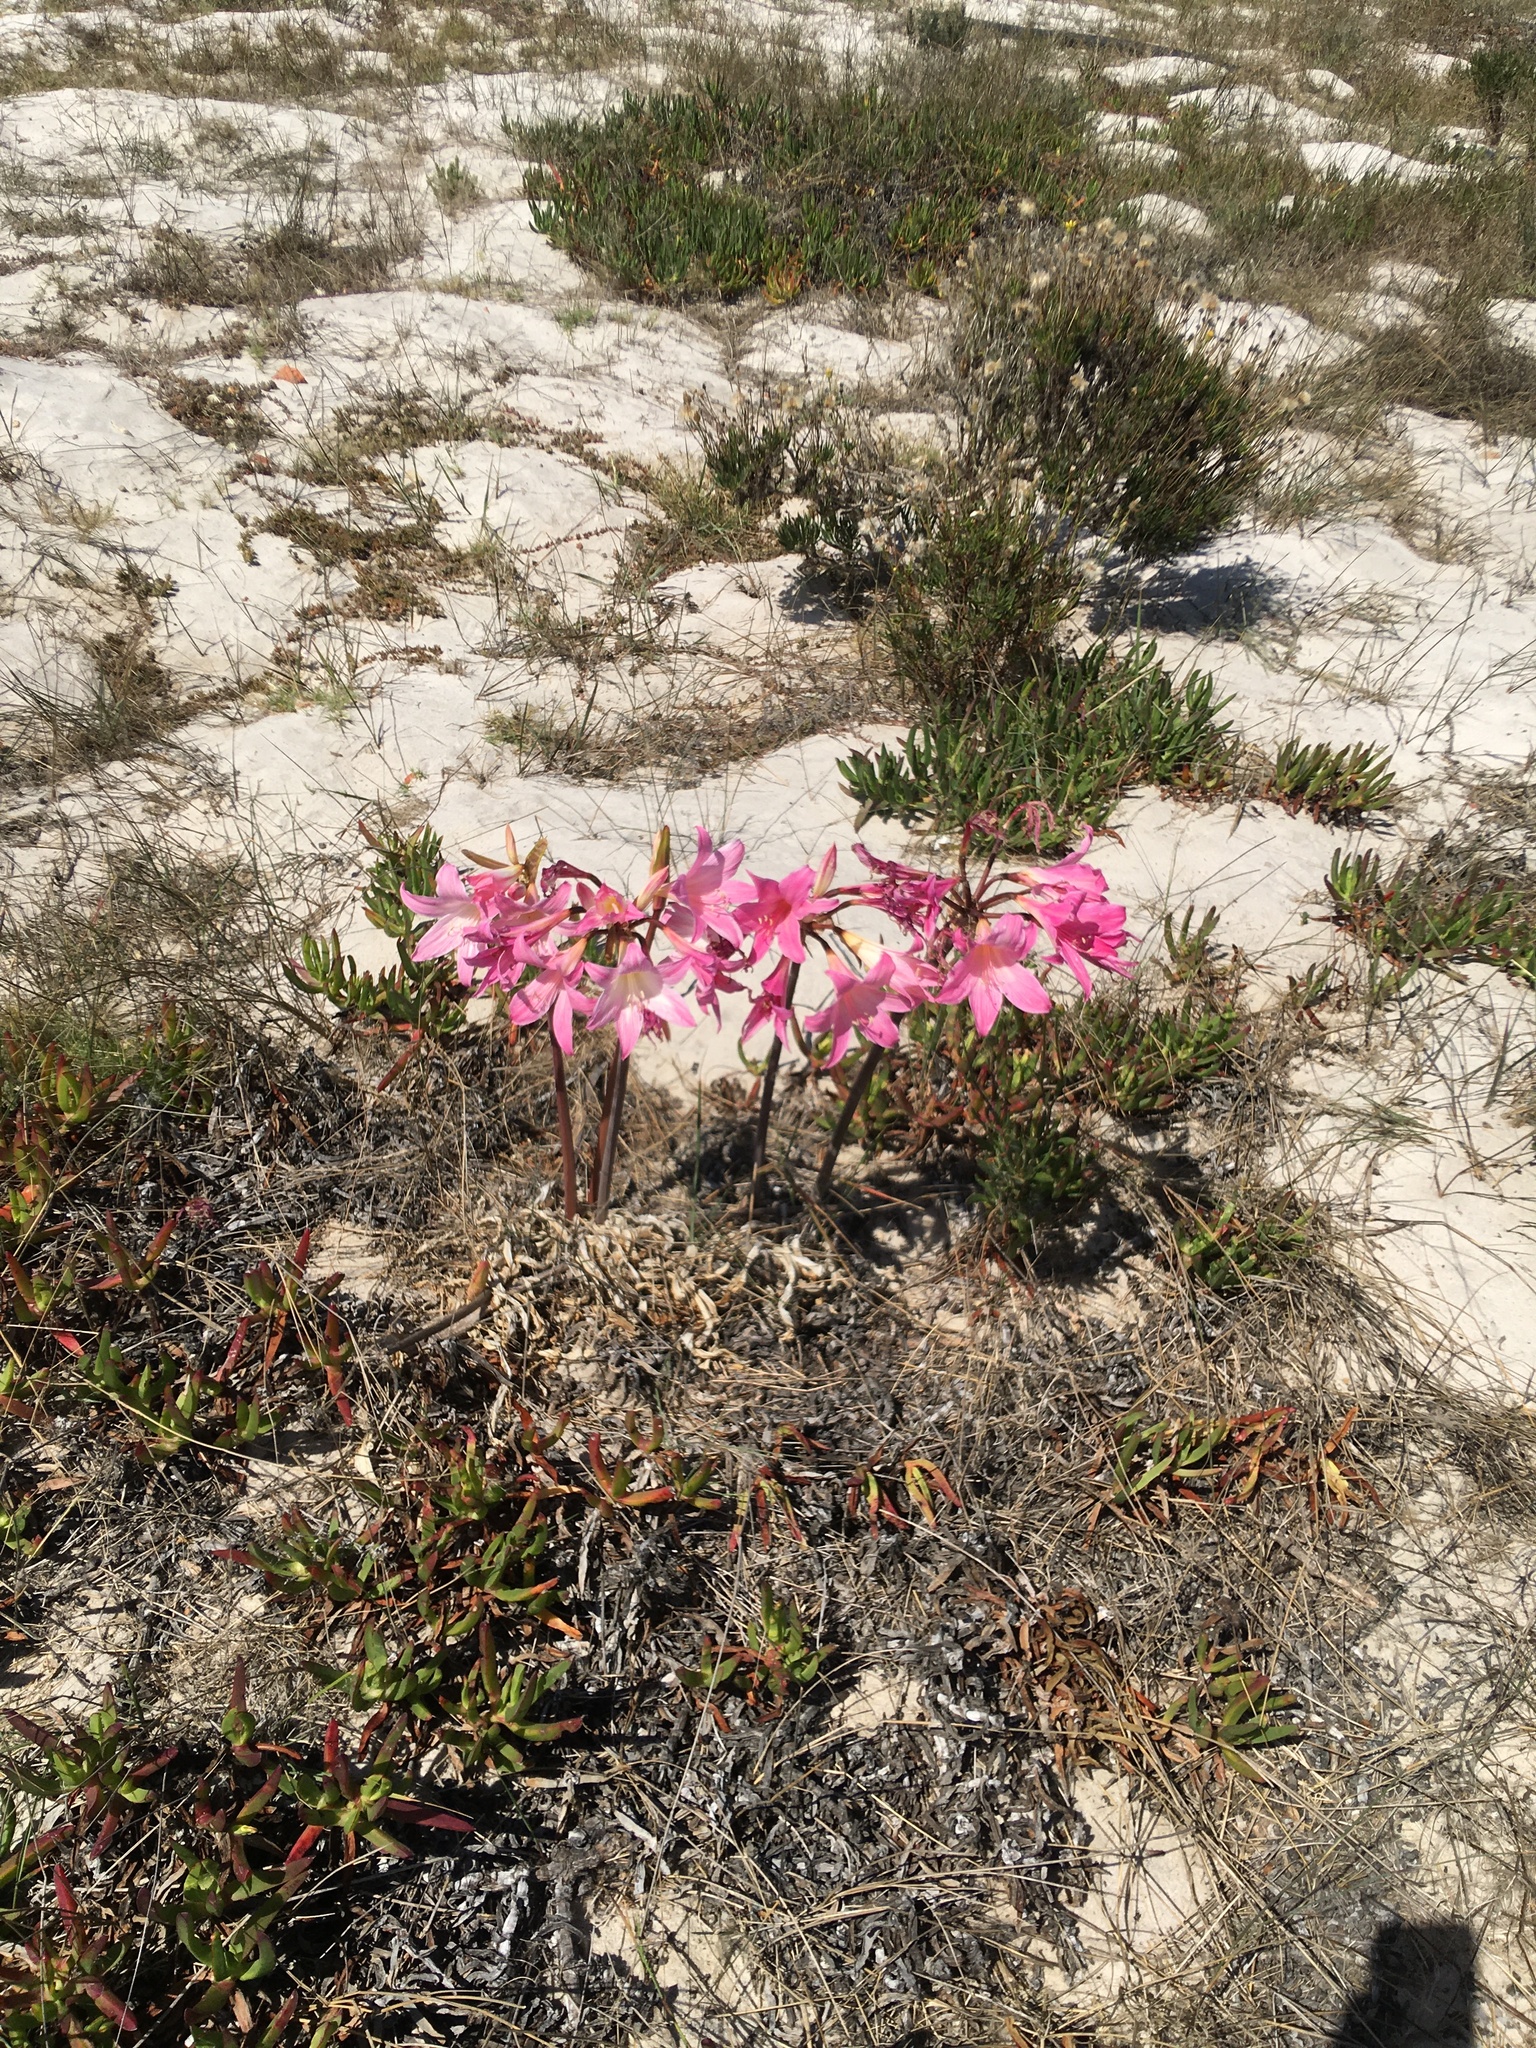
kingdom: Plantae
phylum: Tracheophyta
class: Liliopsida
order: Asparagales
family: Amaryllidaceae
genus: Amaryllis
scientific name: Amaryllis belladonna
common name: Jersey lily
